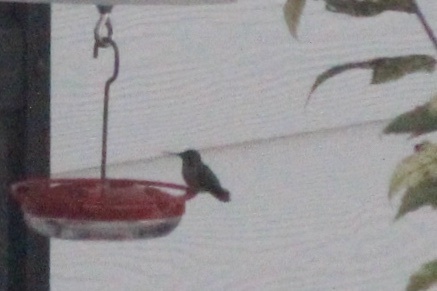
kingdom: Animalia
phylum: Chordata
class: Aves
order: Apodiformes
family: Trochilidae
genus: Calypte
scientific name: Calypte anna
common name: Anna's hummingbird
